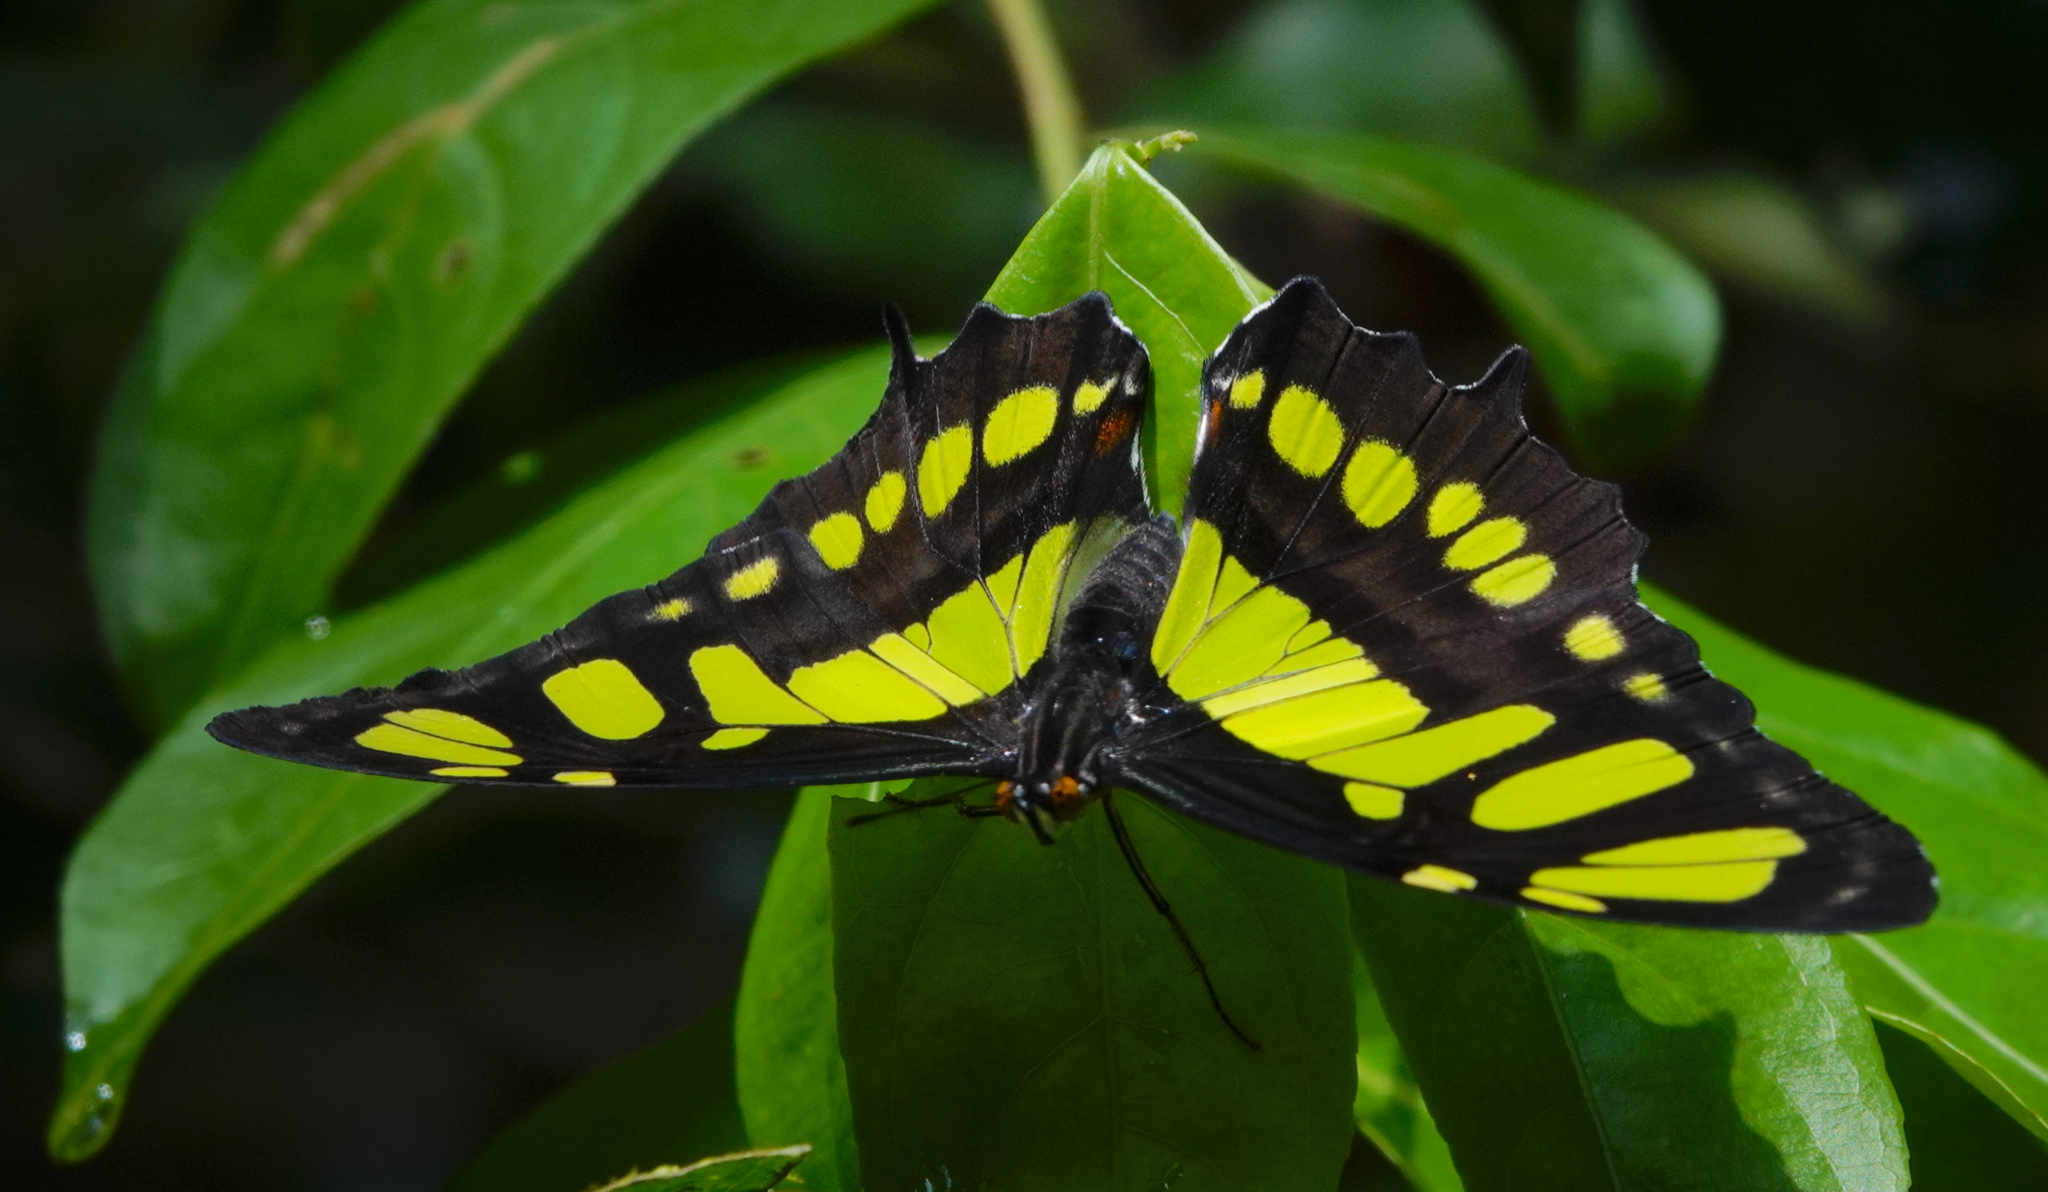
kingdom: Animalia
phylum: Arthropoda
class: Insecta
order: Lepidoptera
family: Nymphalidae
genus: Siproeta
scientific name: Siproeta stelenes
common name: Malachite
